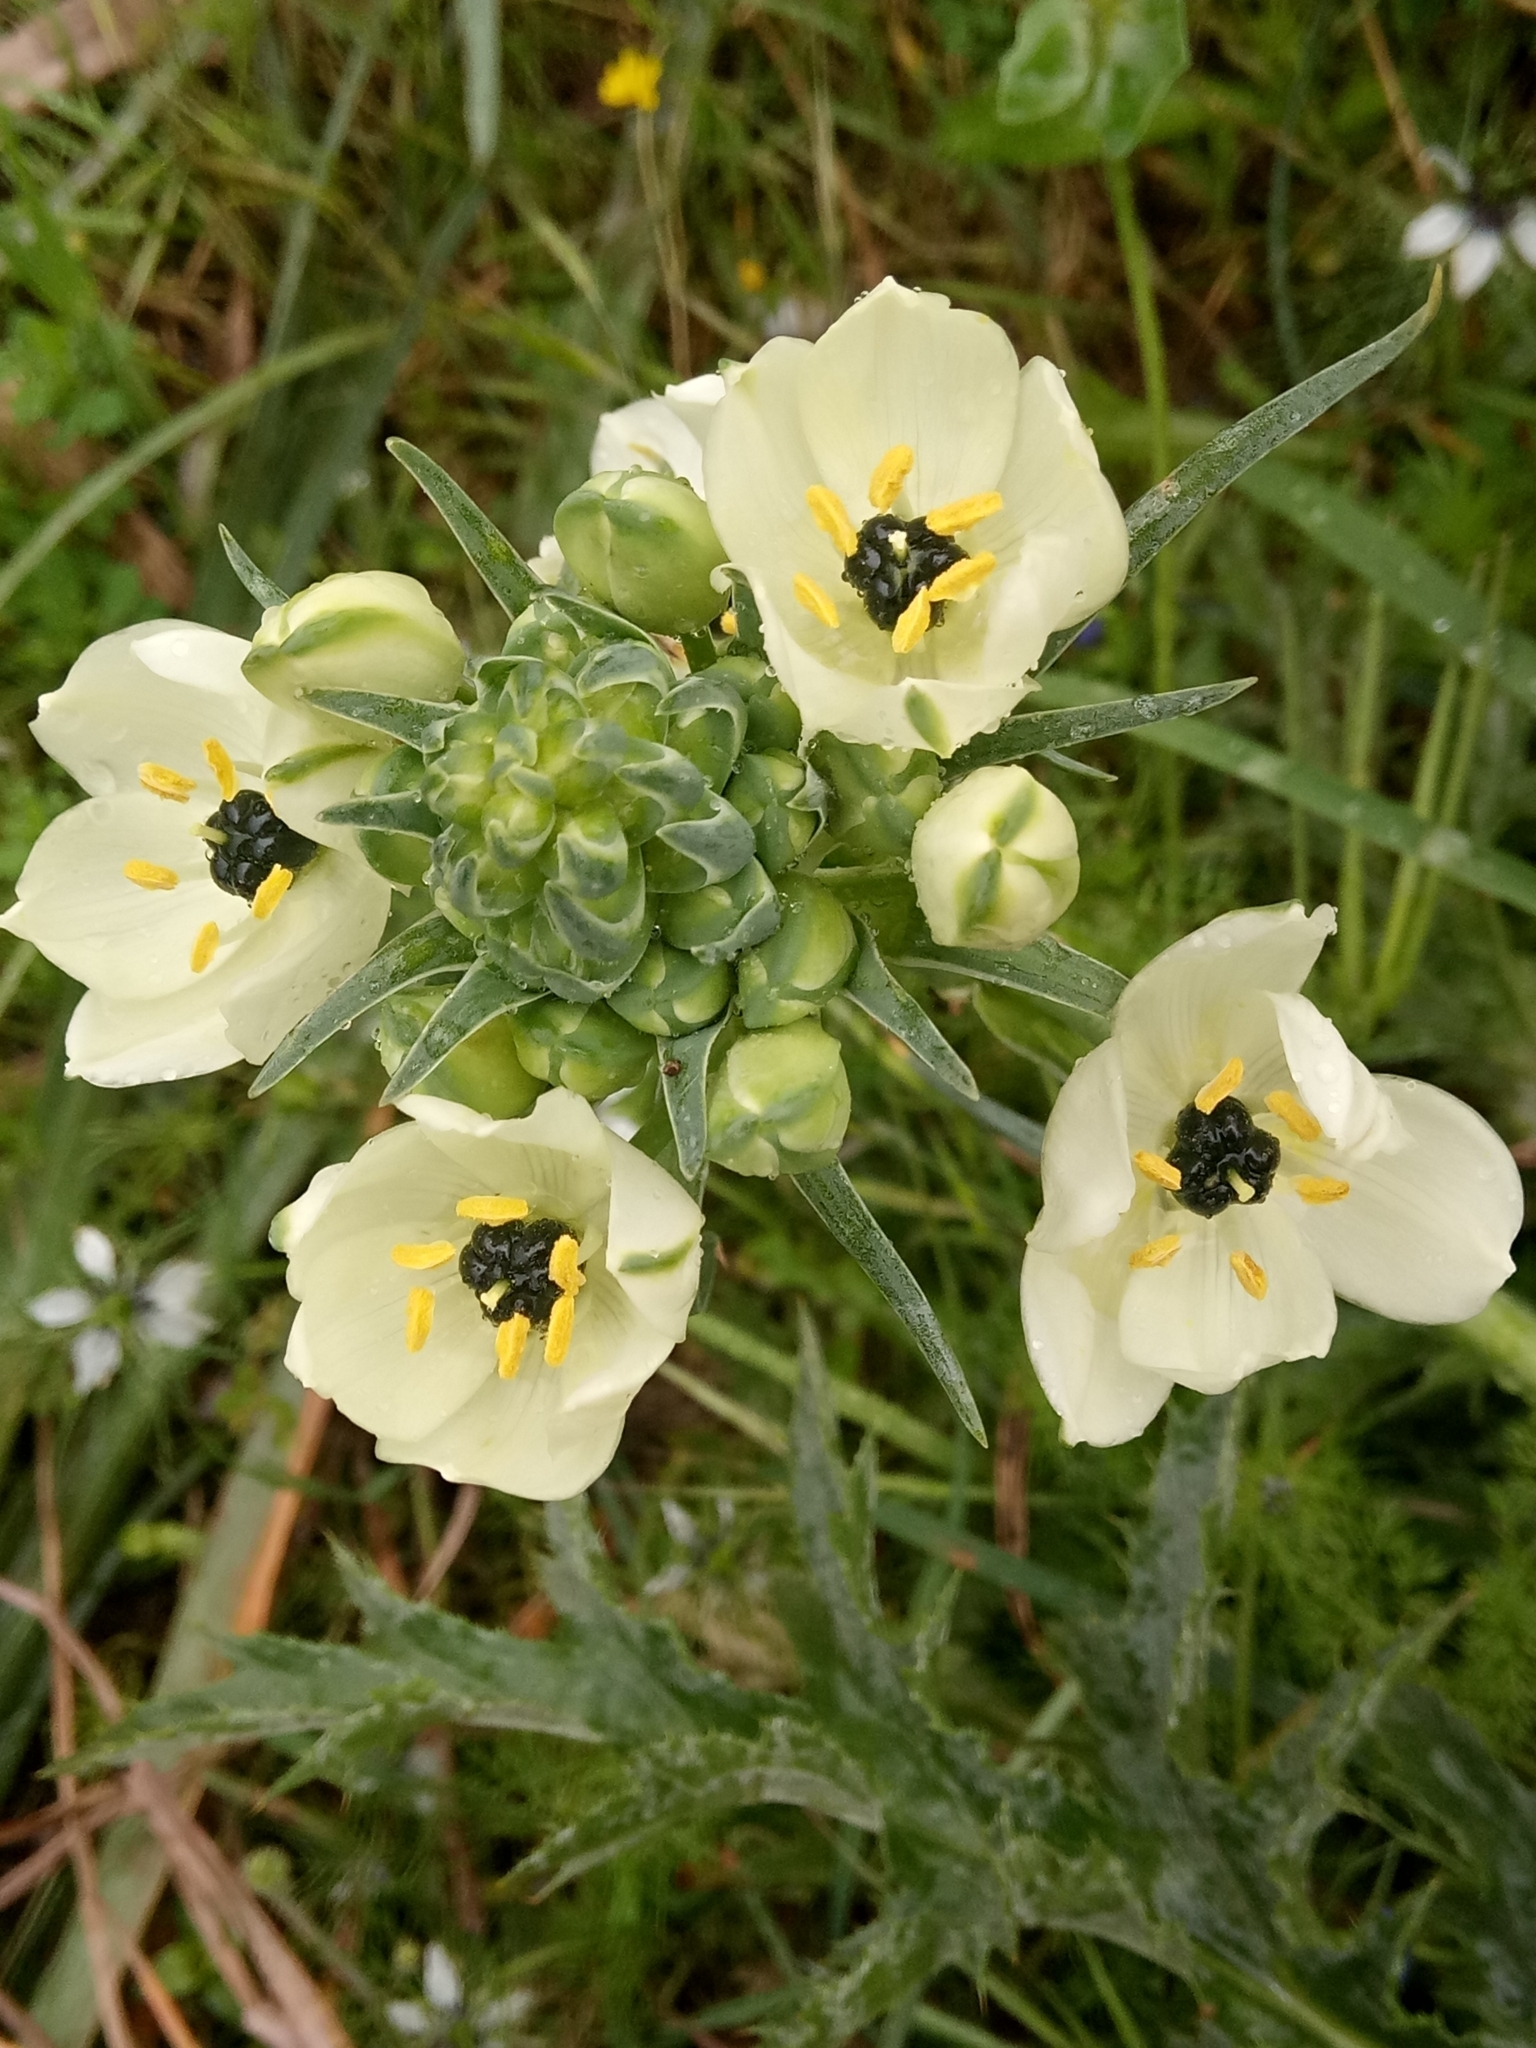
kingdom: Plantae
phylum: Tracheophyta
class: Liliopsida
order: Asparagales
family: Asparagaceae
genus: Ornithogalum
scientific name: Ornithogalum arabicum
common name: Arabian starflower
